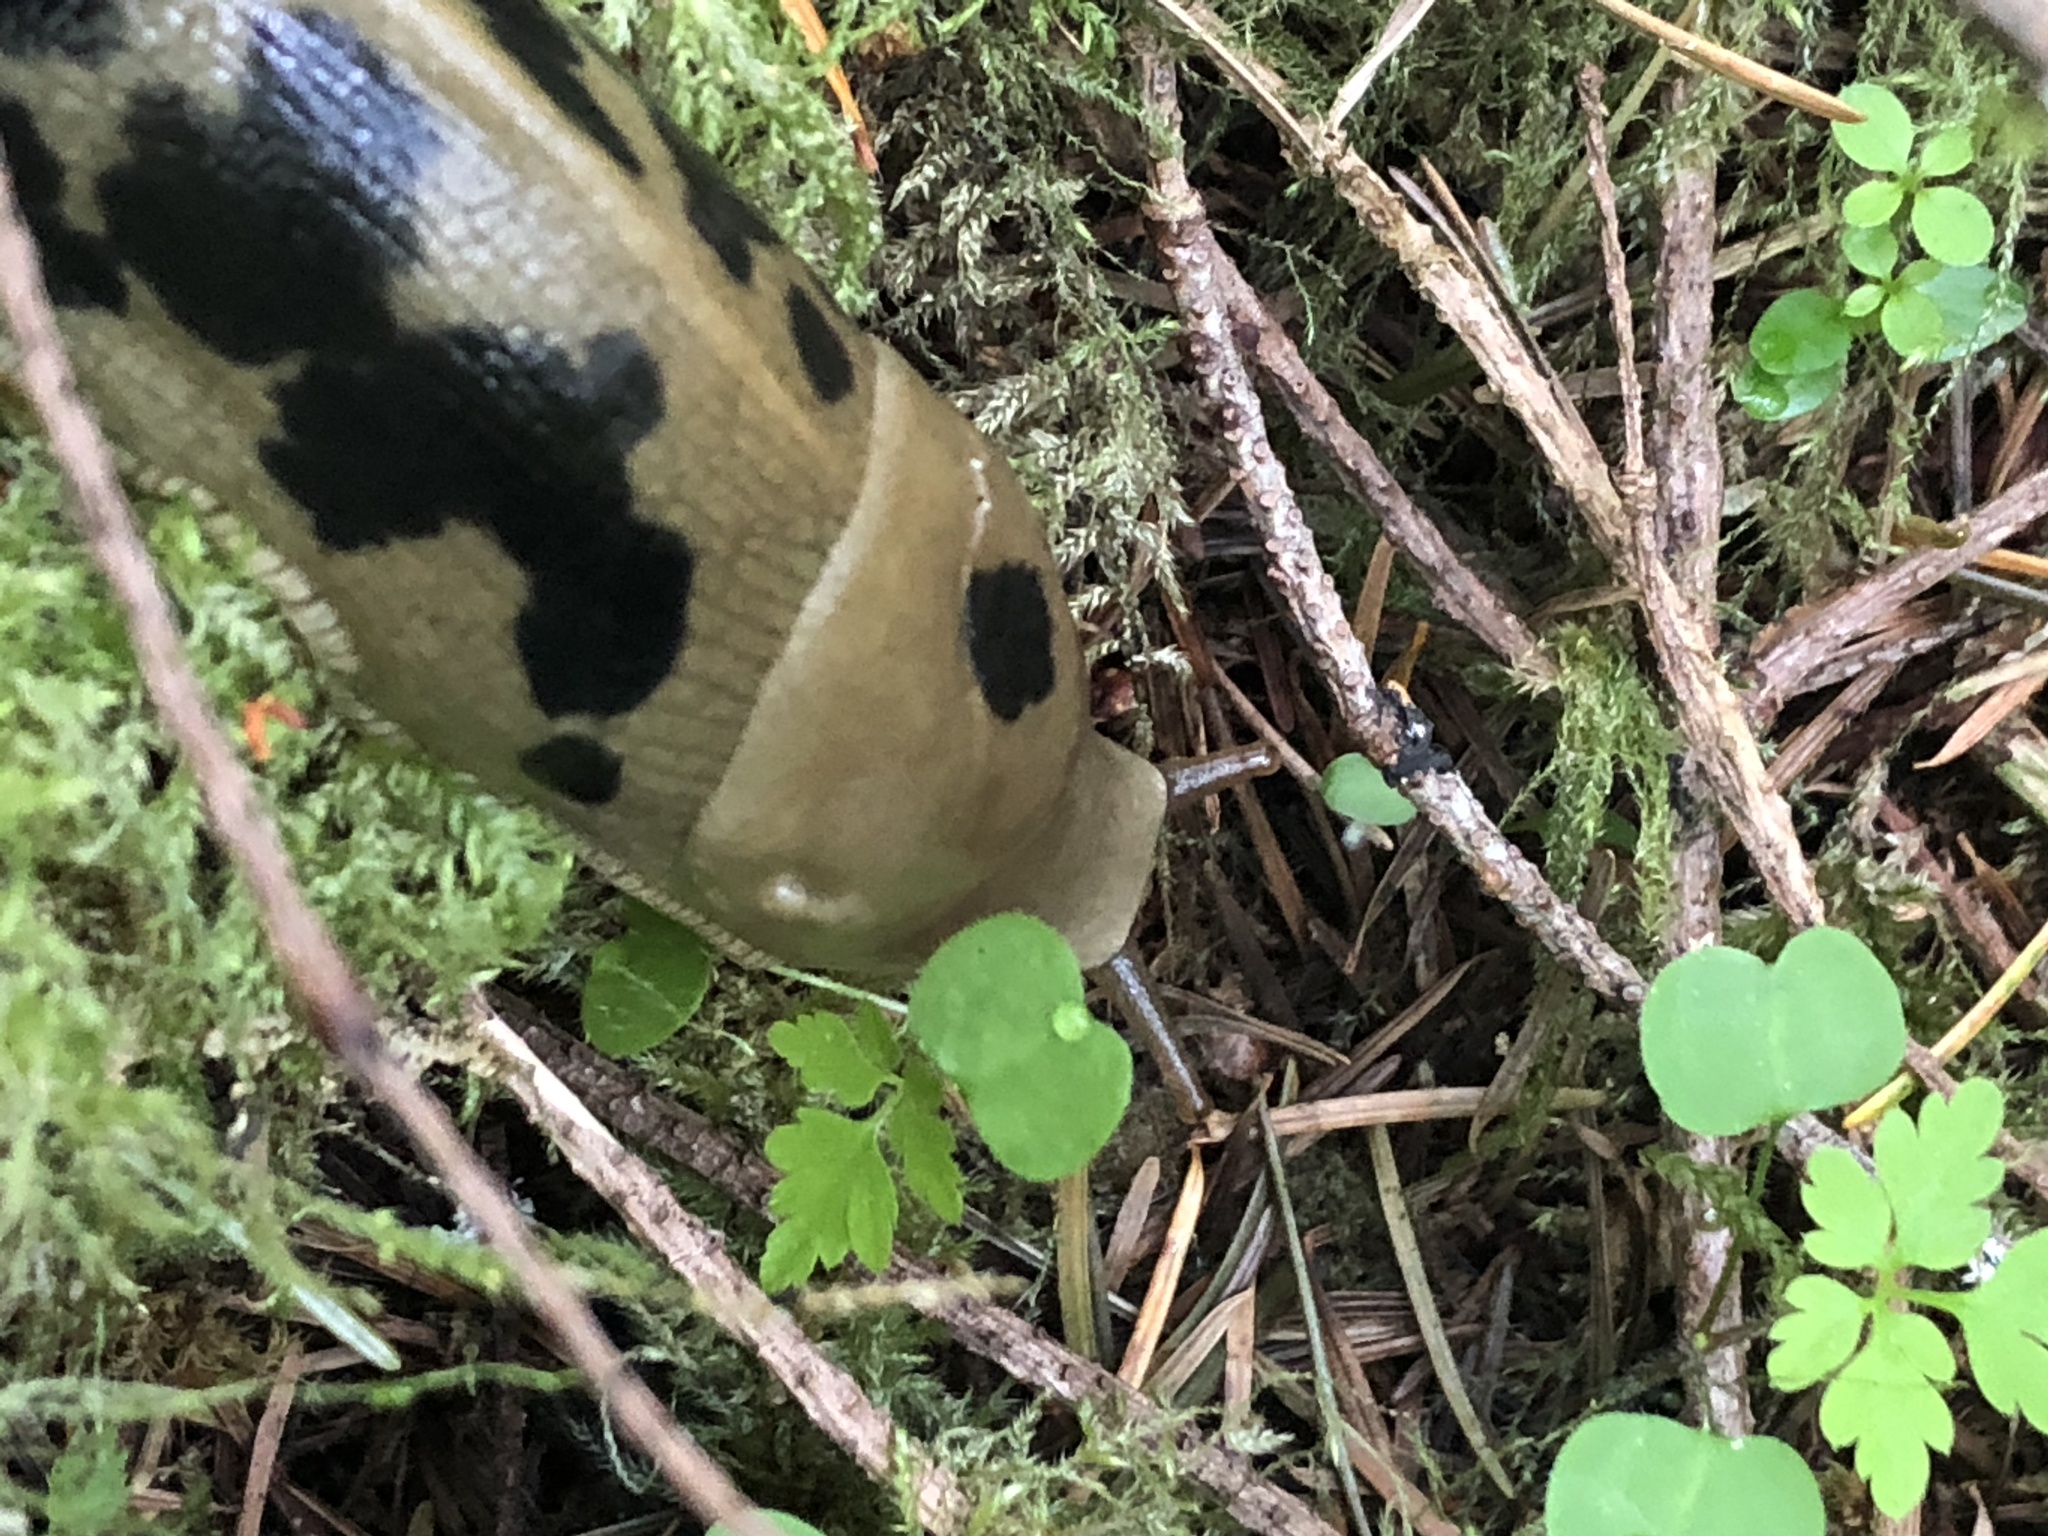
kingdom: Animalia
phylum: Mollusca
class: Gastropoda
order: Stylommatophora
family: Ariolimacidae
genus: Ariolimax
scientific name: Ariolimax columbianus
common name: Pacific banana slug
